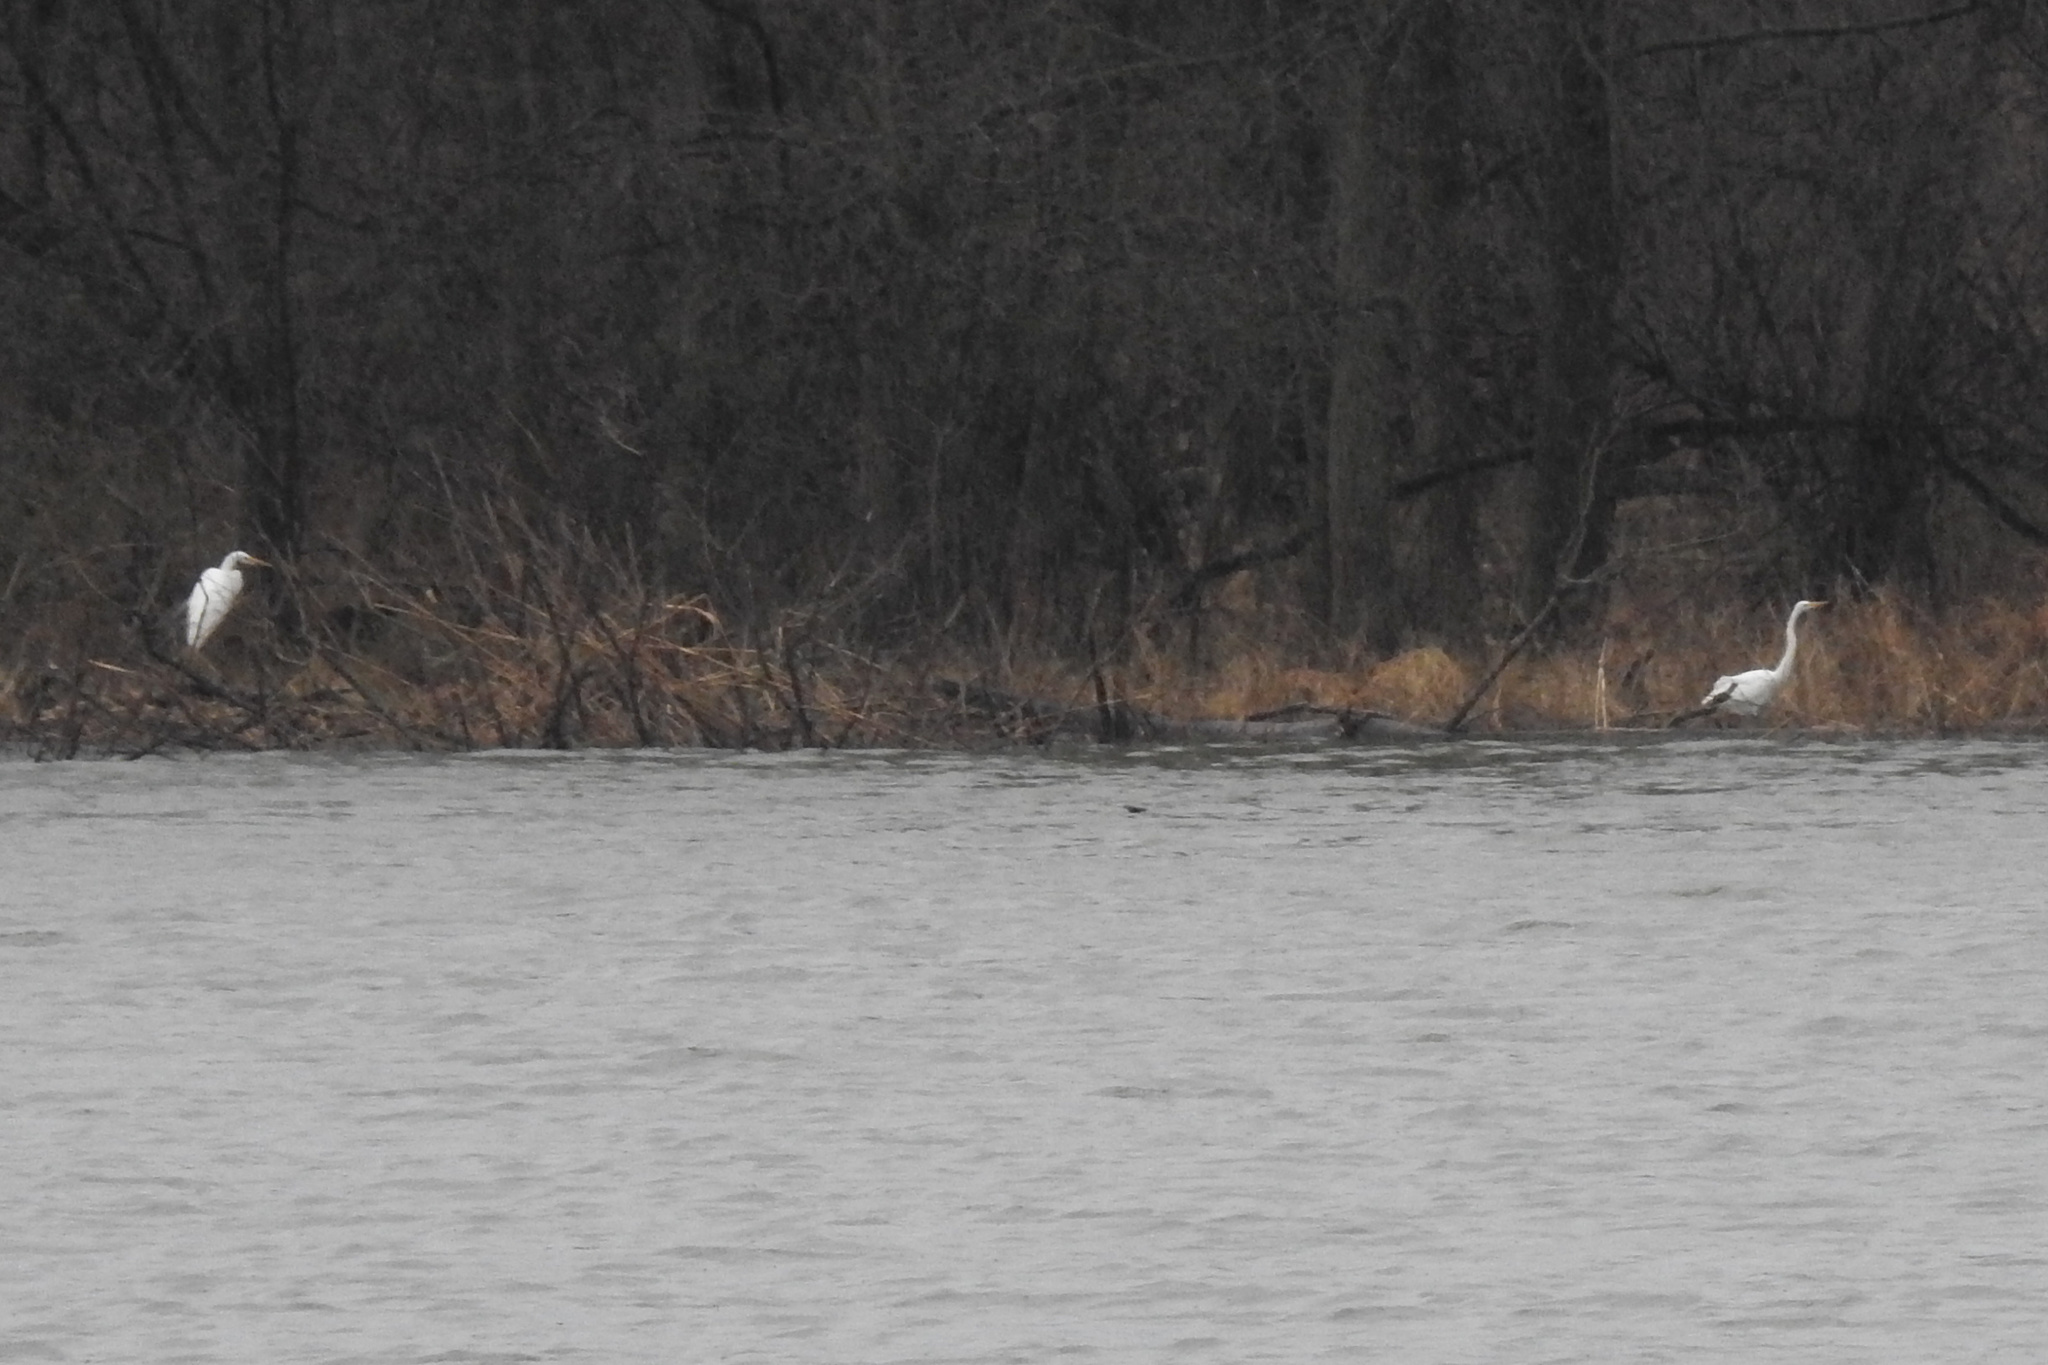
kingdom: Animalia
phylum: Chordata
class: Aves
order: Pelecaniformes
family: Ardeidae
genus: Ardea
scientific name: Ardea alba
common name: Great egret
